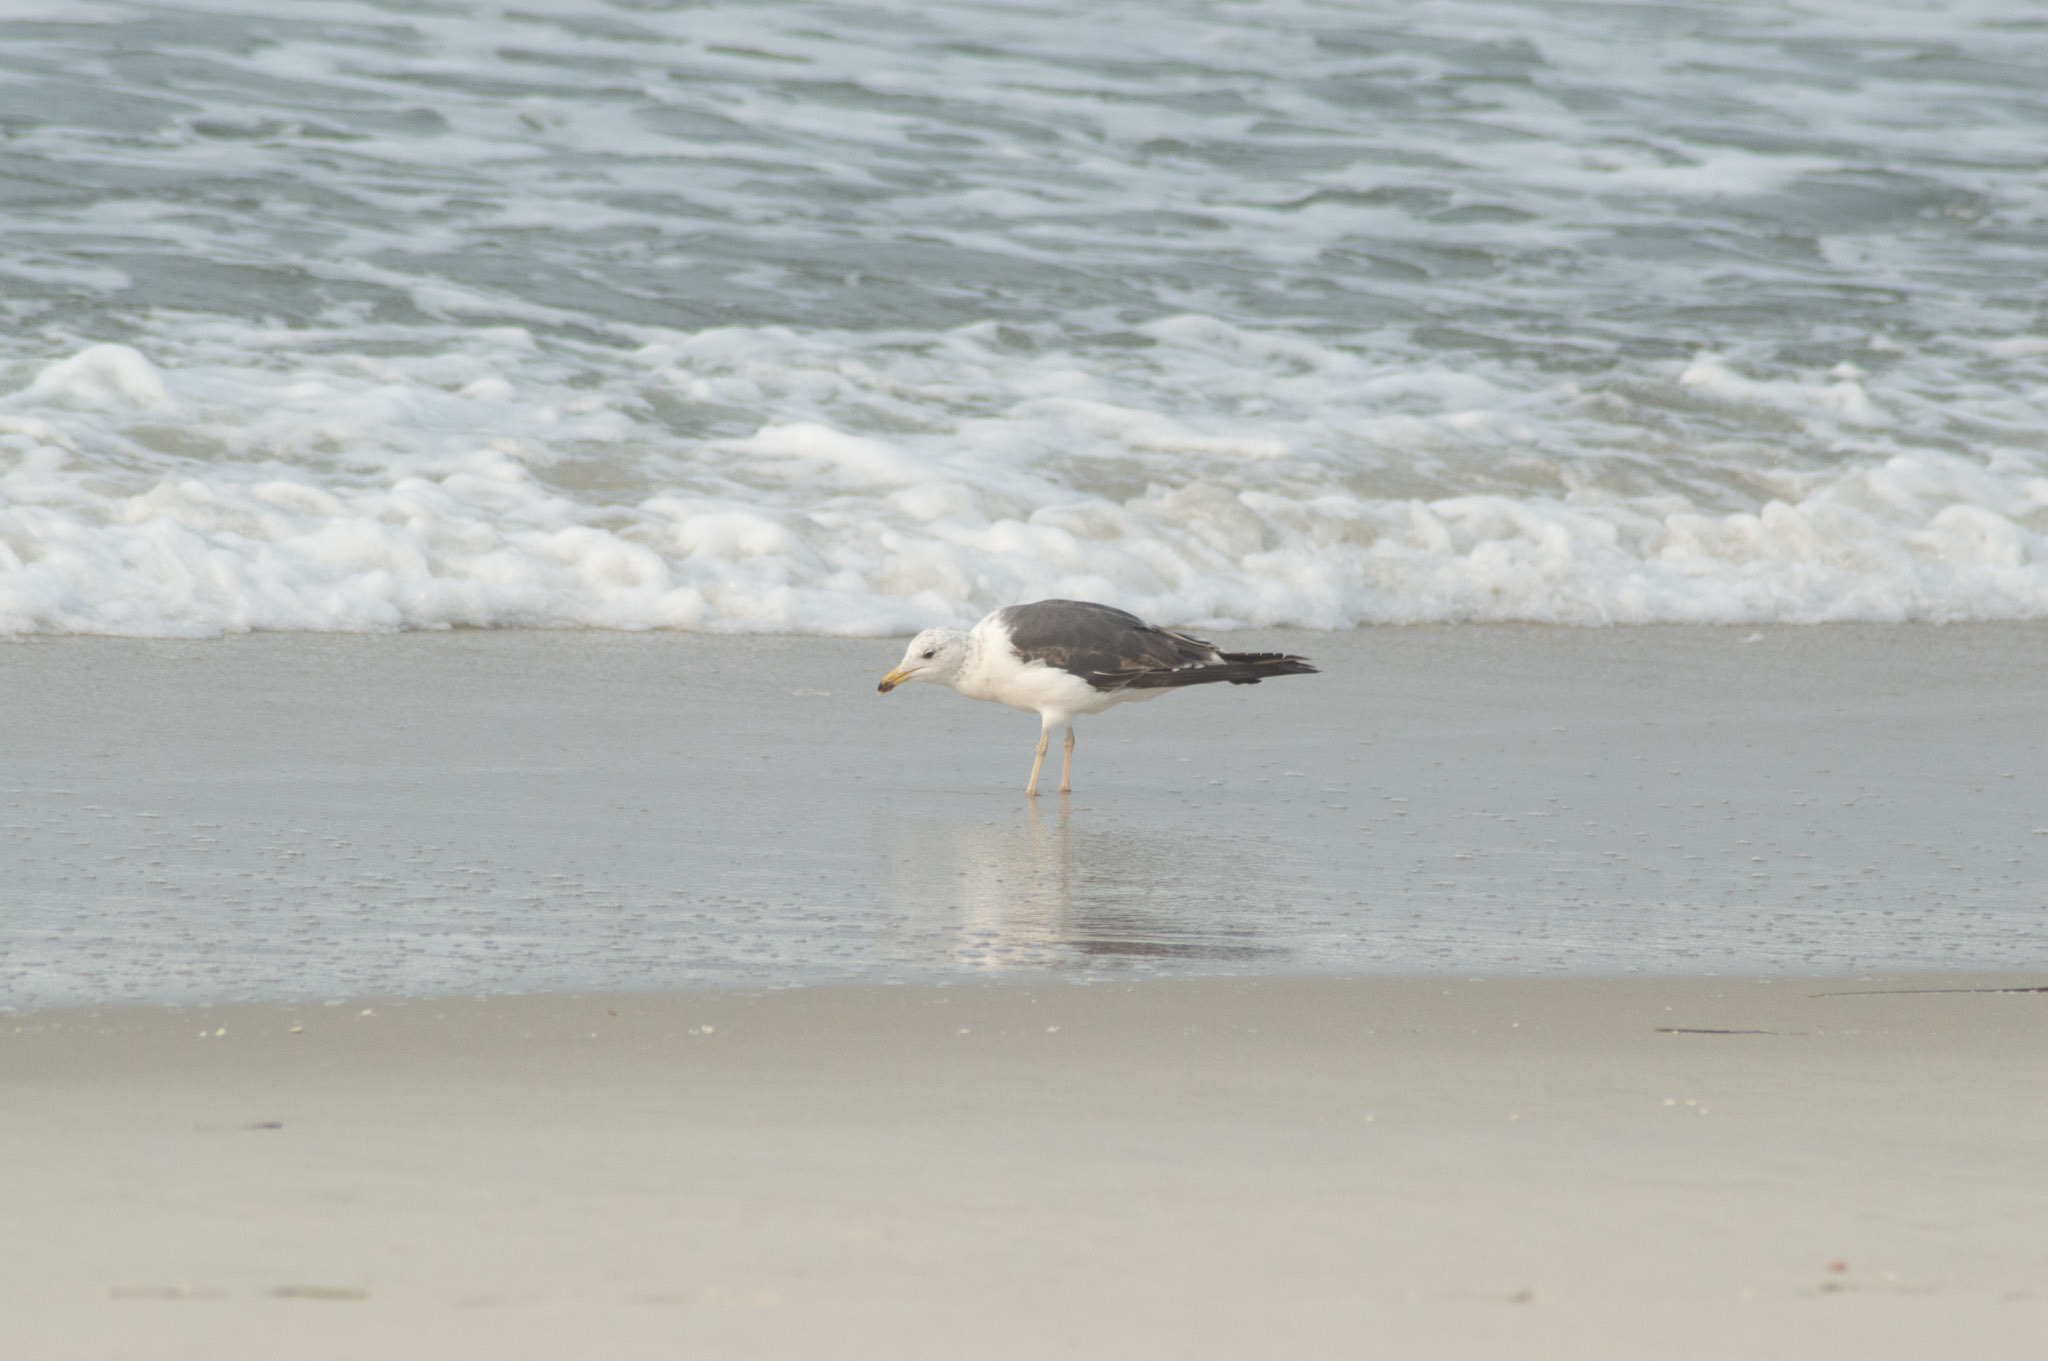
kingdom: Animalia
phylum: Chordata
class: Aves
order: Charadriiformes
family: Laridae
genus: Larus
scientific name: Larus fuscus
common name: Lesser black-backed gull
